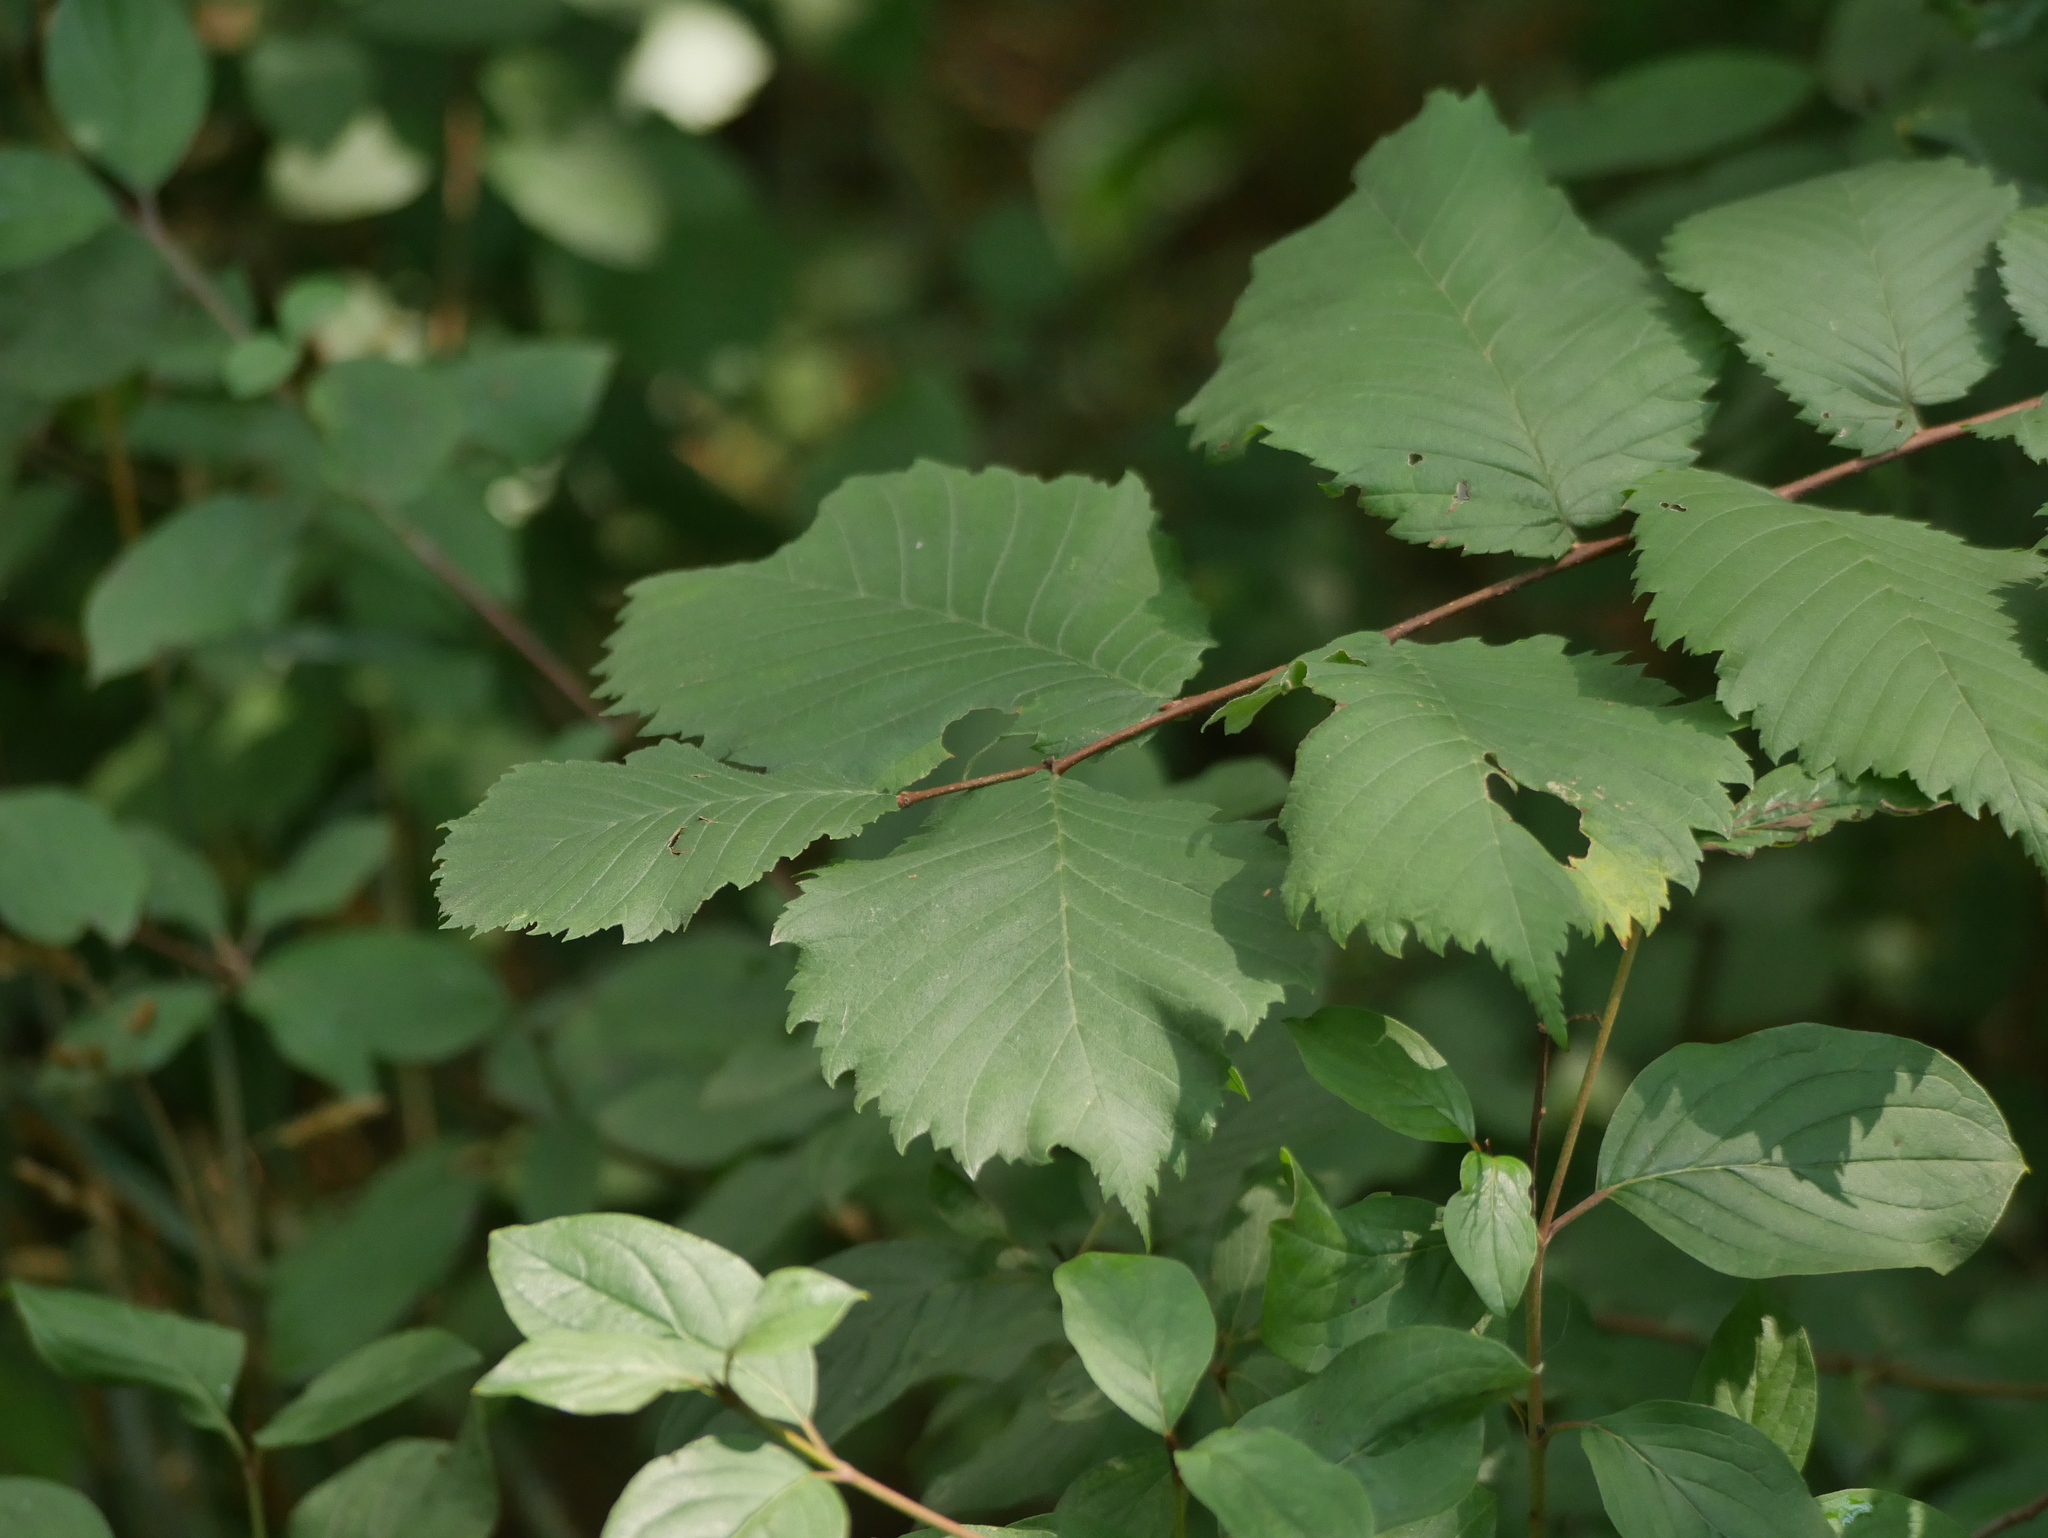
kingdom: Plantae
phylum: Tracheophyta
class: Magnoliopsida
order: Rosales
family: Ulmaceae
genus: Ulmus
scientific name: Ulmus glabra
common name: Wych elm
